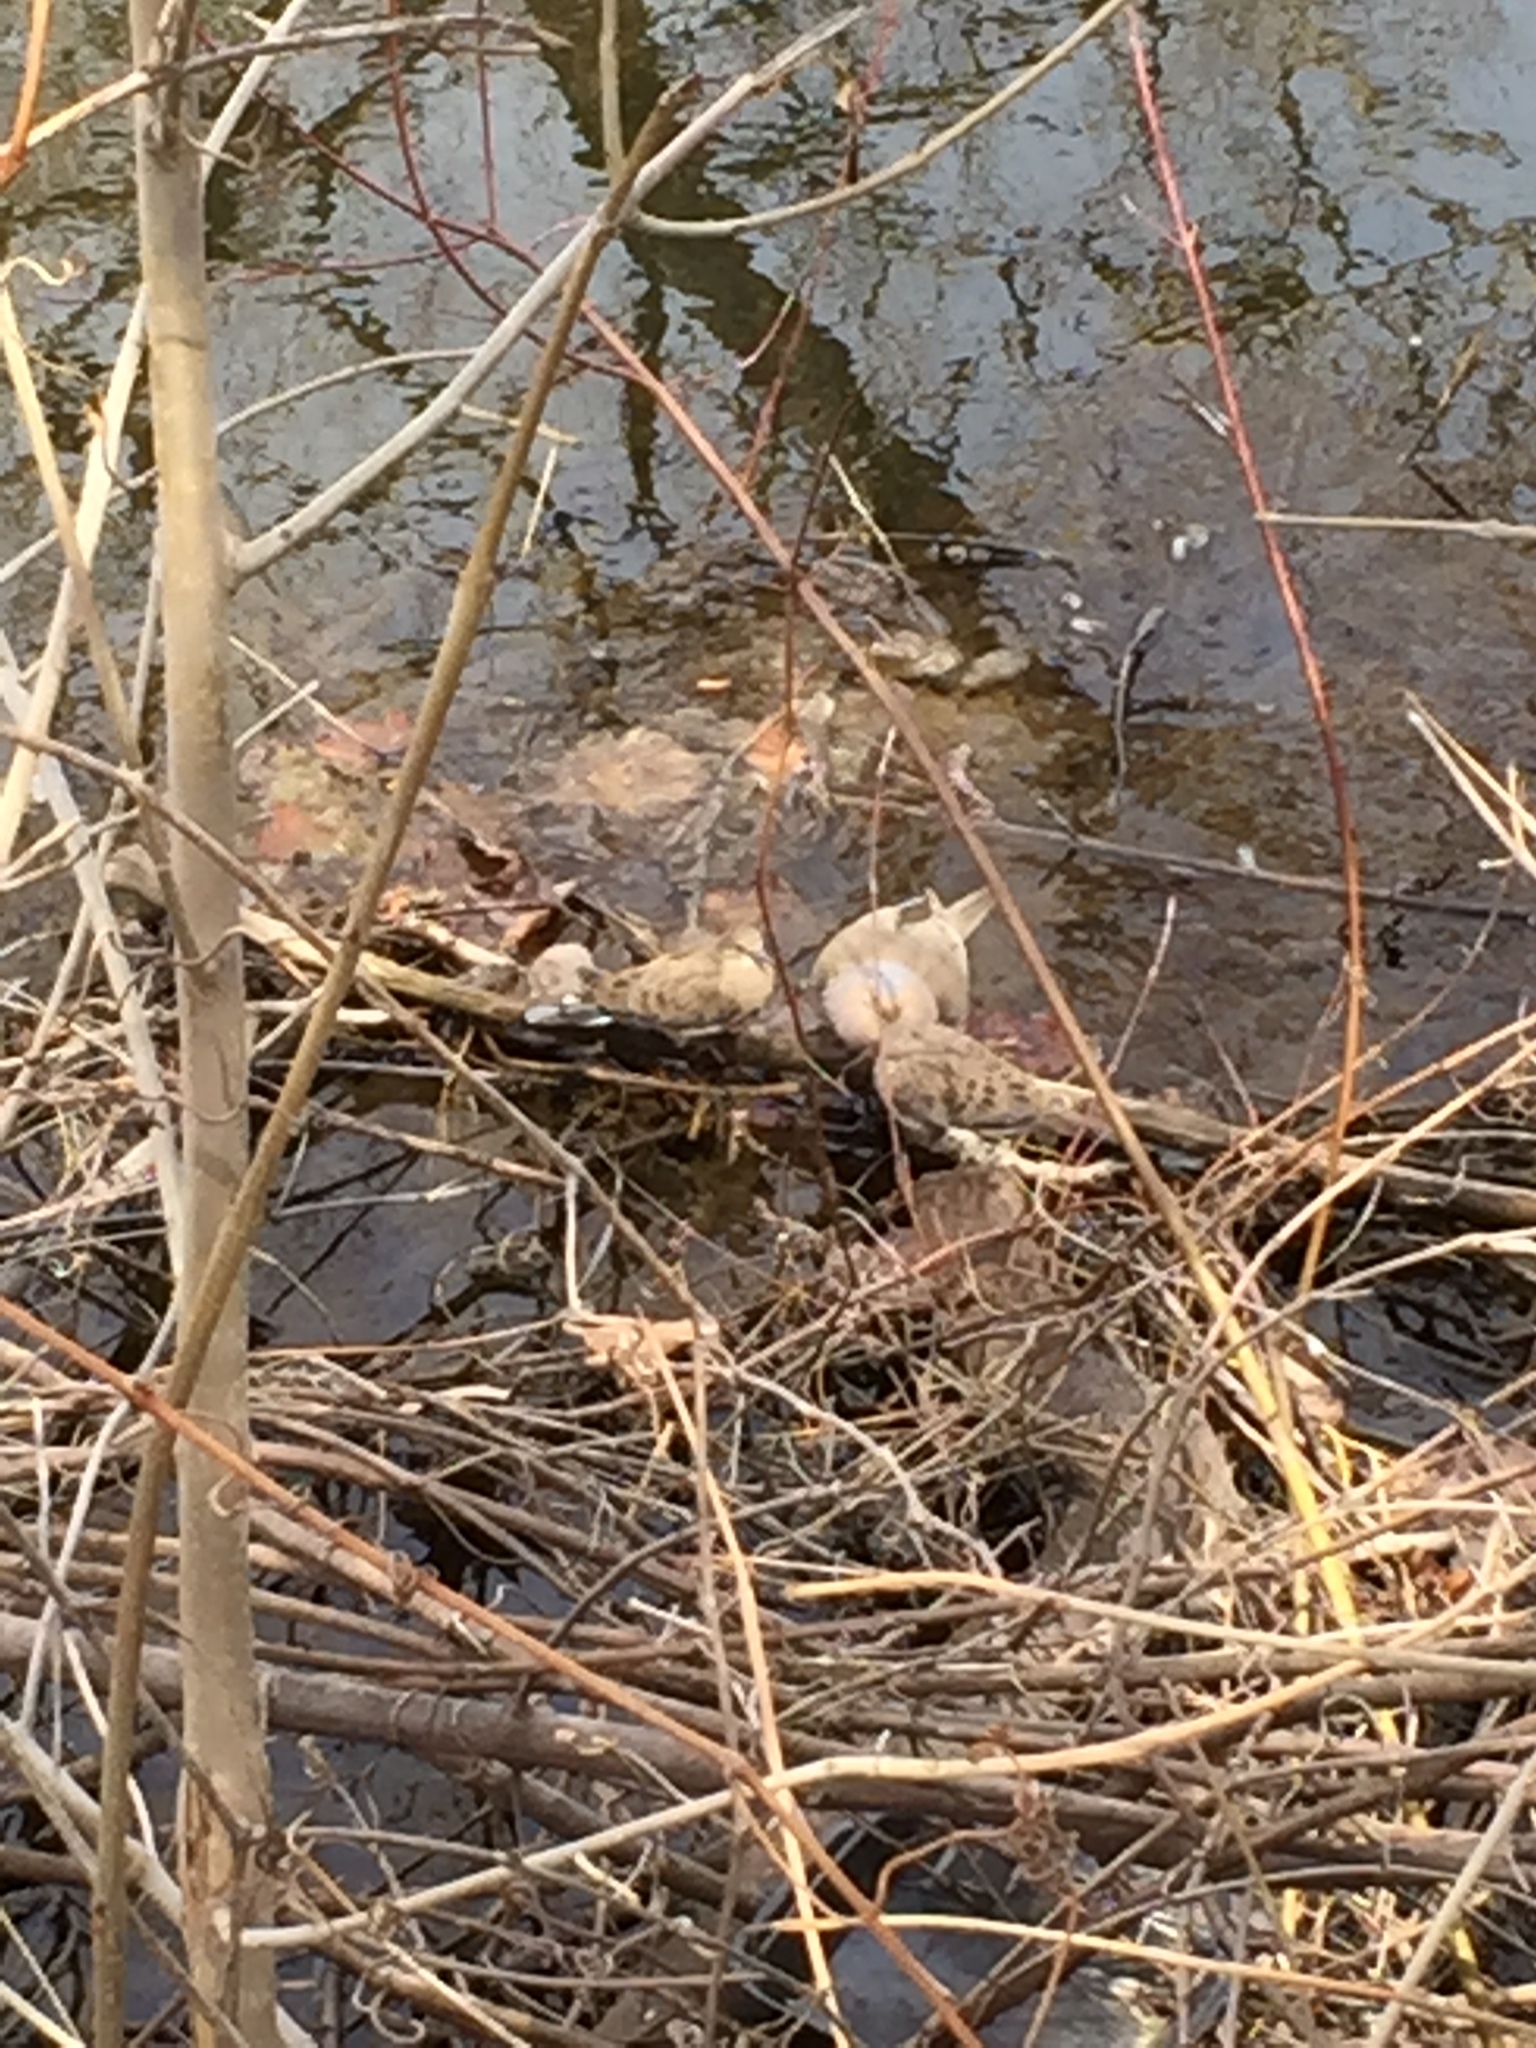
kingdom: Animalia
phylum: Chordata
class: Aves
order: Columbiformes
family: Columbidae
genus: Zenaida
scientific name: Zenaida macroura
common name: Mourning dove
